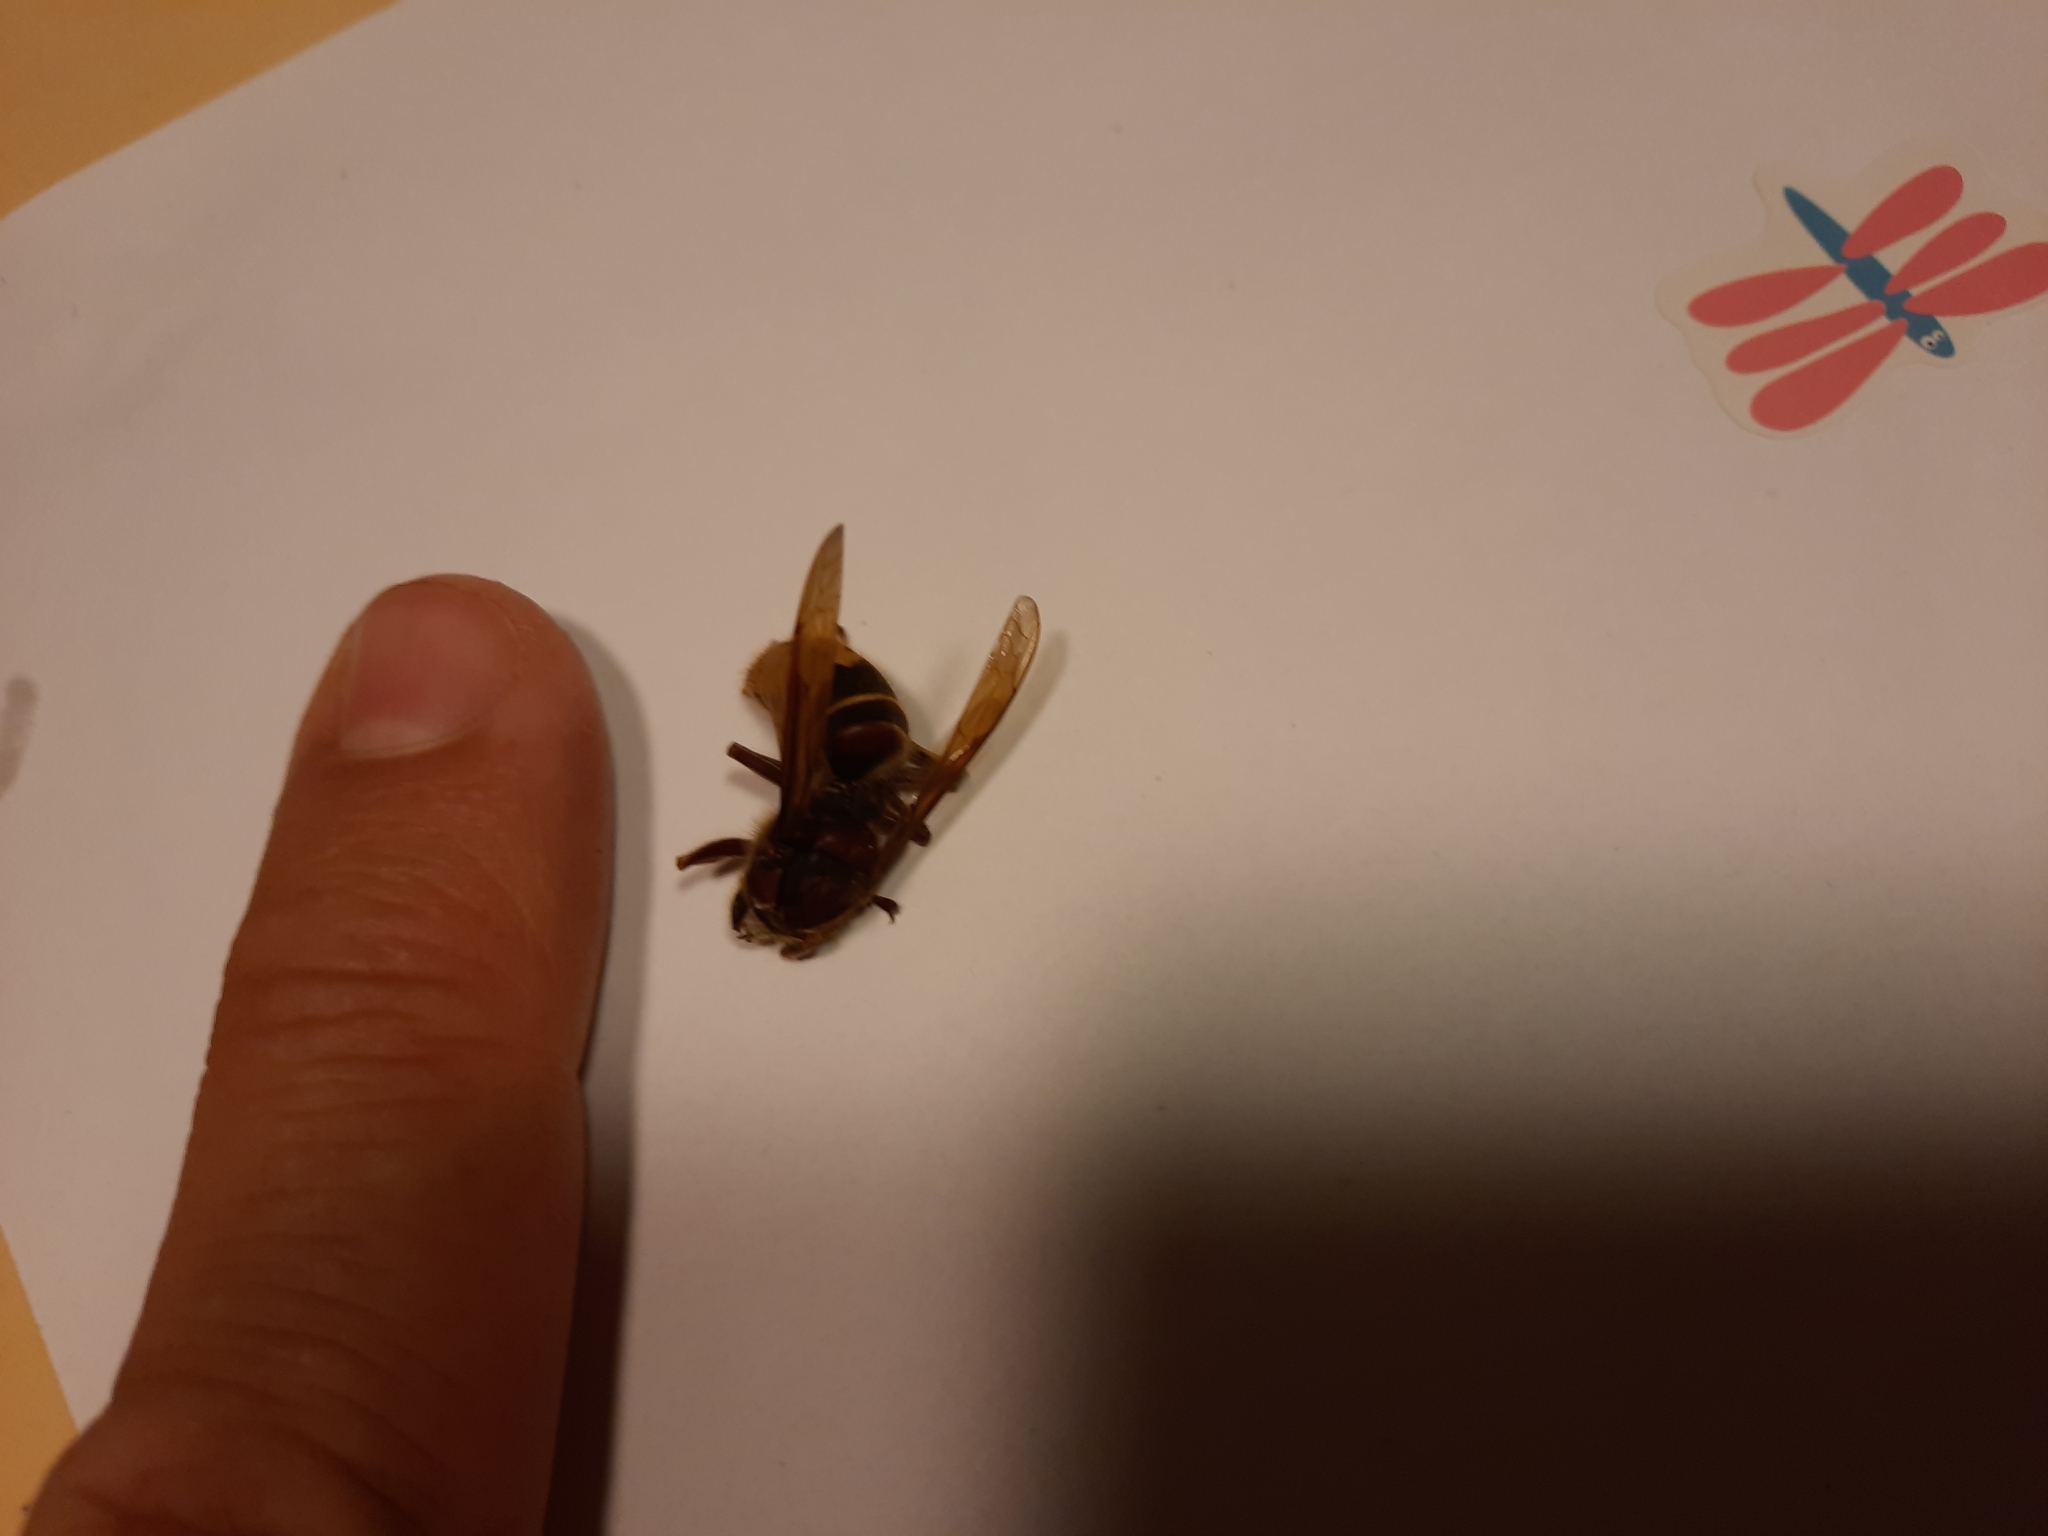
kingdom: Animalia
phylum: Arthropoda
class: Insecta
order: Hymenoptera
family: Vespidae
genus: Vespa
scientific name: Vespa crabro
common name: Hornet
